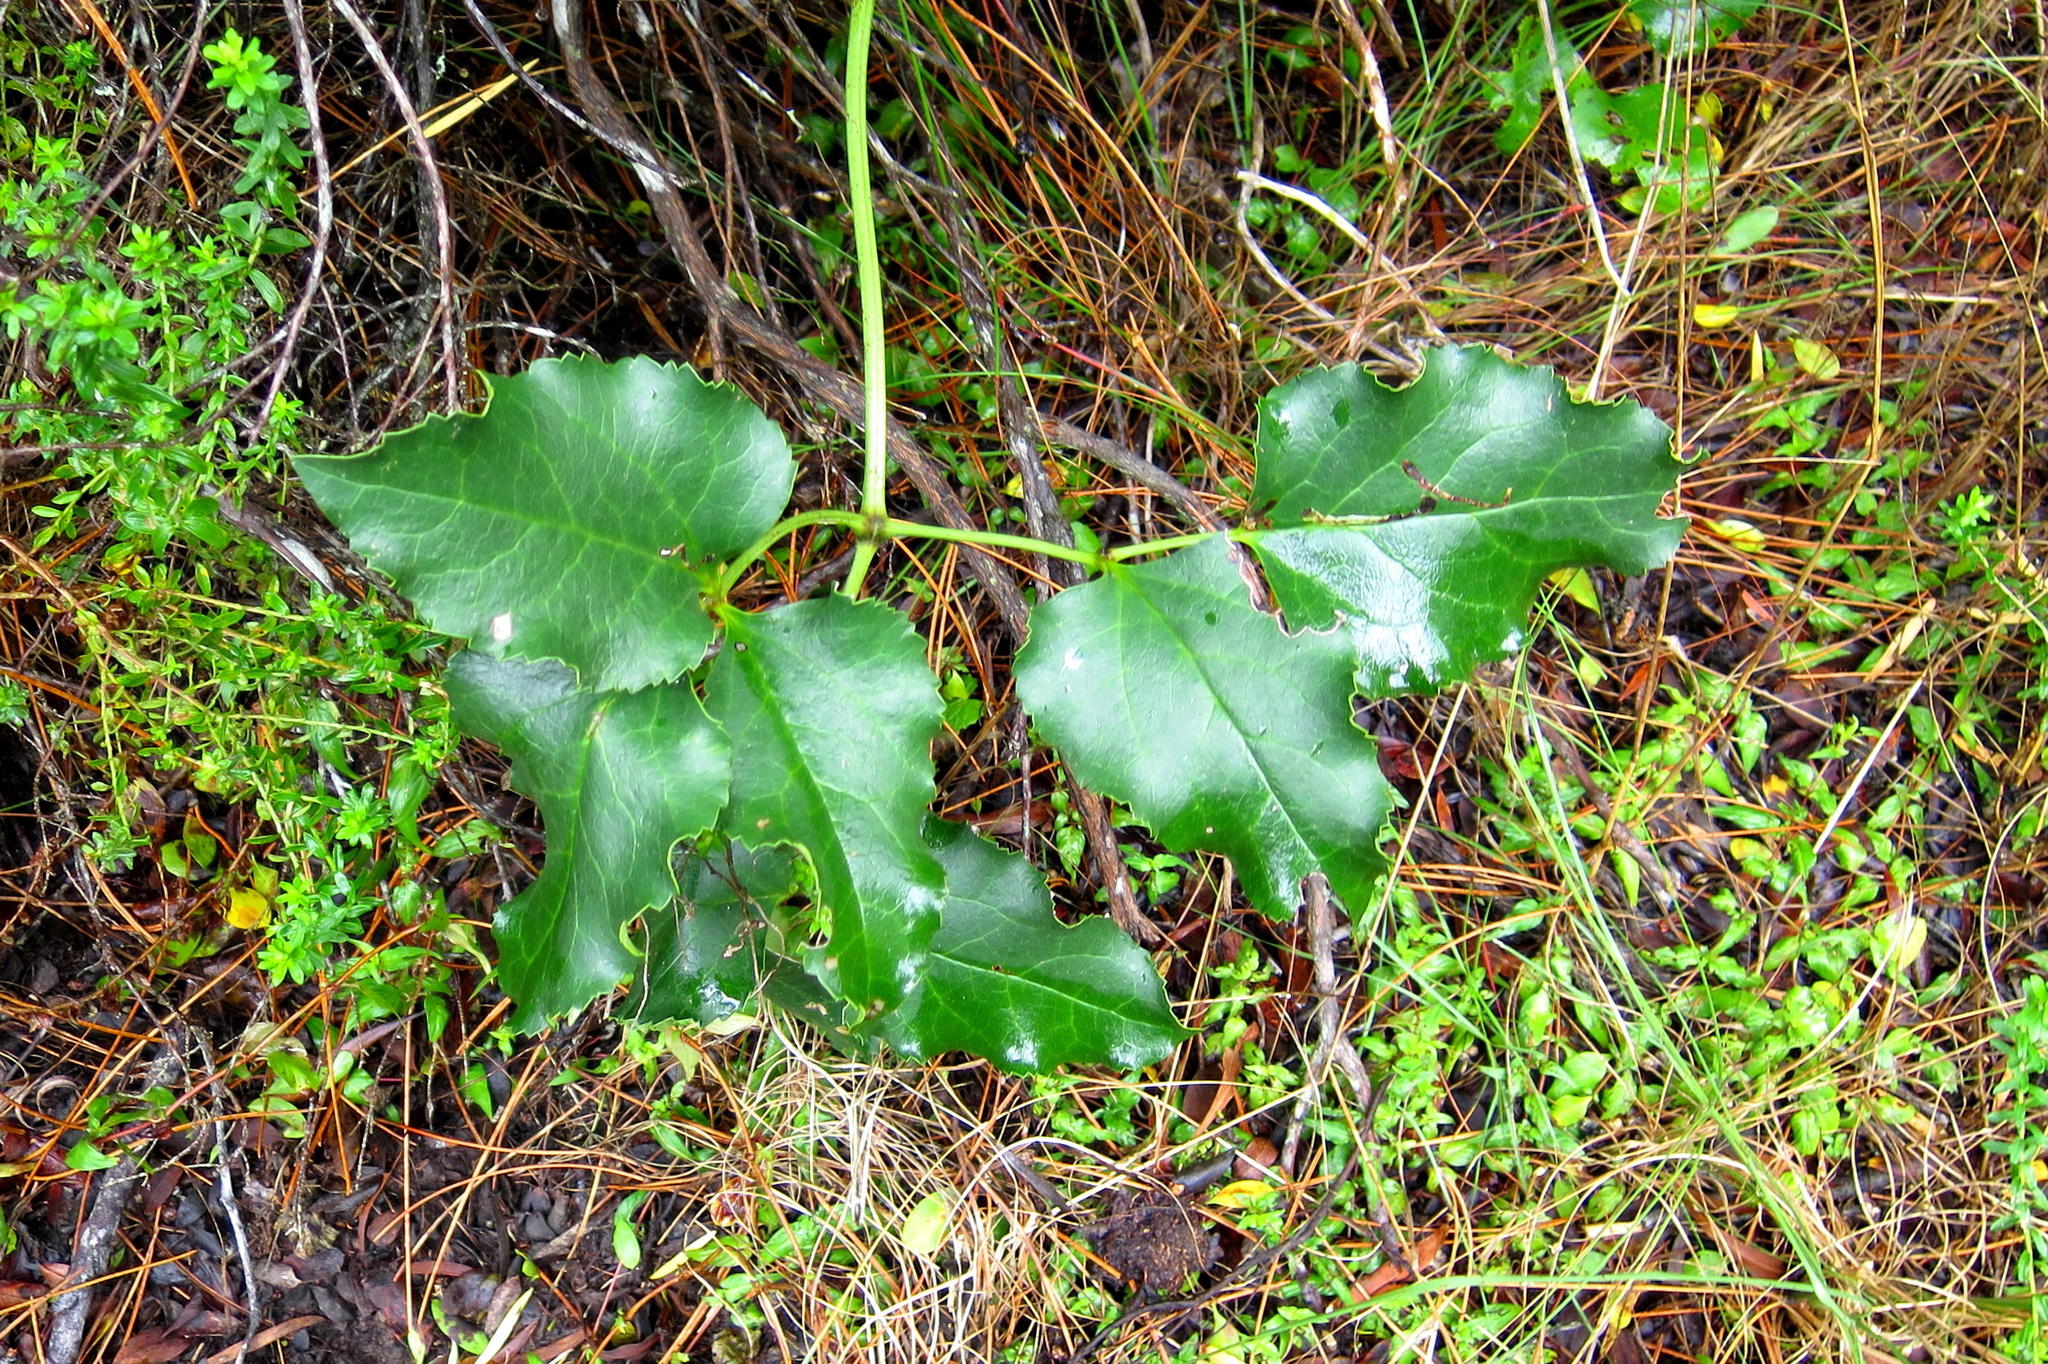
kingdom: Plantae
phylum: Tracheophyta
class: Magnoliopsida
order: Ranunculales
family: Ranunculaceae
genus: Knowltonia
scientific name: Knowltonia vesicatoria
